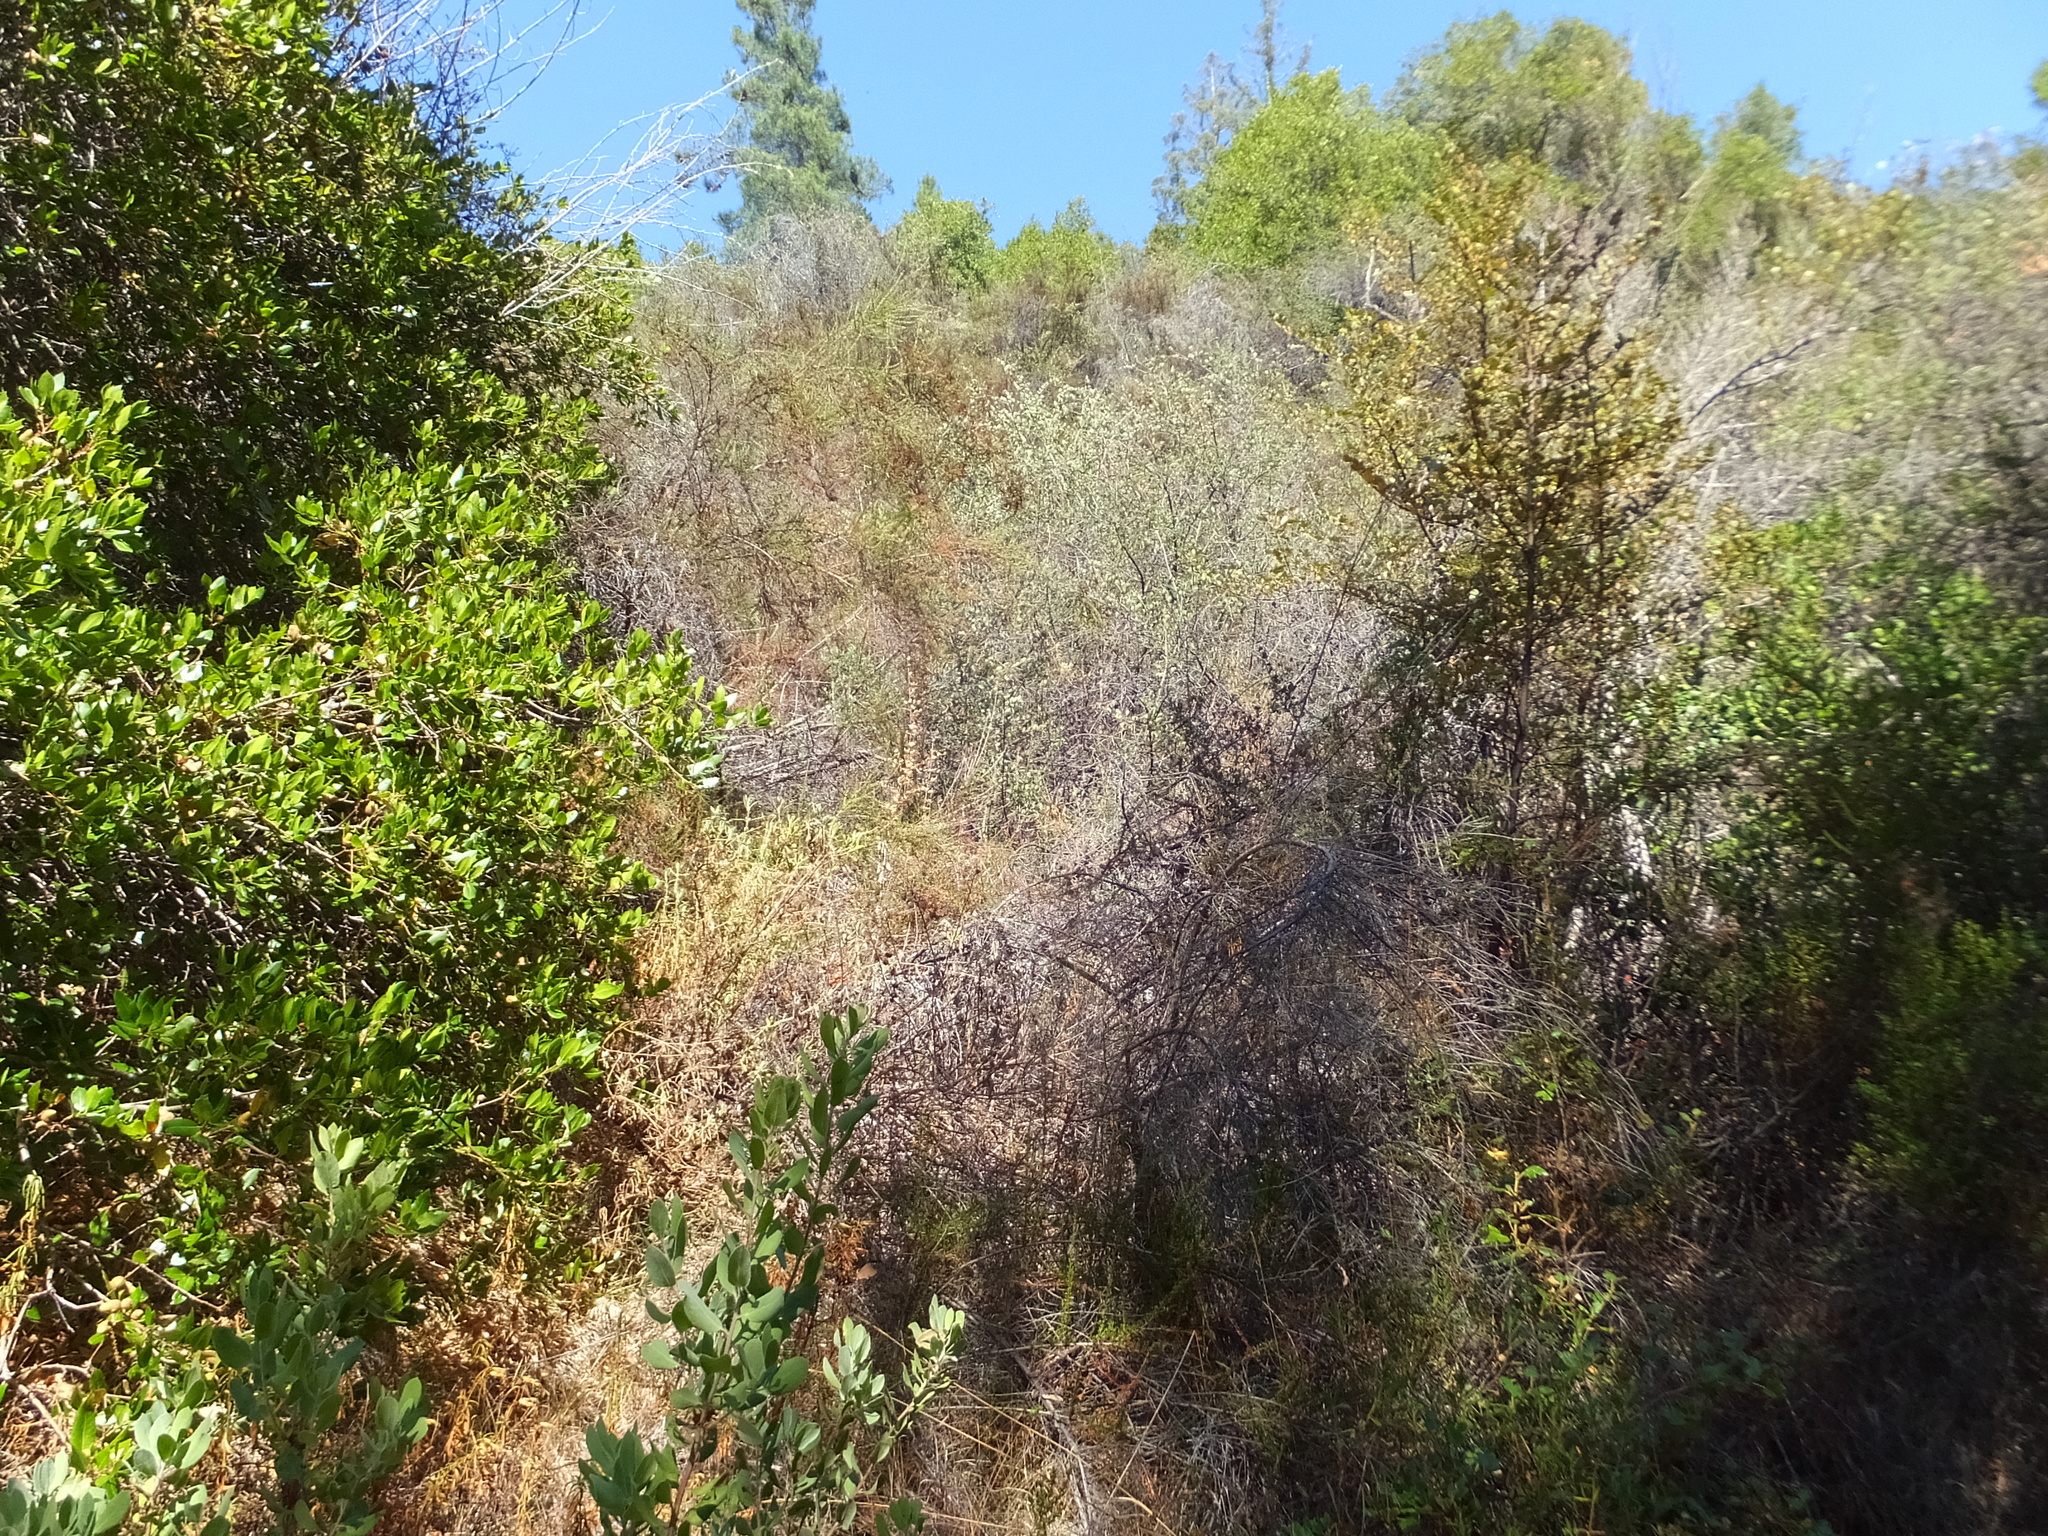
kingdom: Plantae
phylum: Tracheophyta
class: Magnoliopsida
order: Malvales
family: Malvaceae
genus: Fremontodendron
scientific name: Fremontodendron californicum
